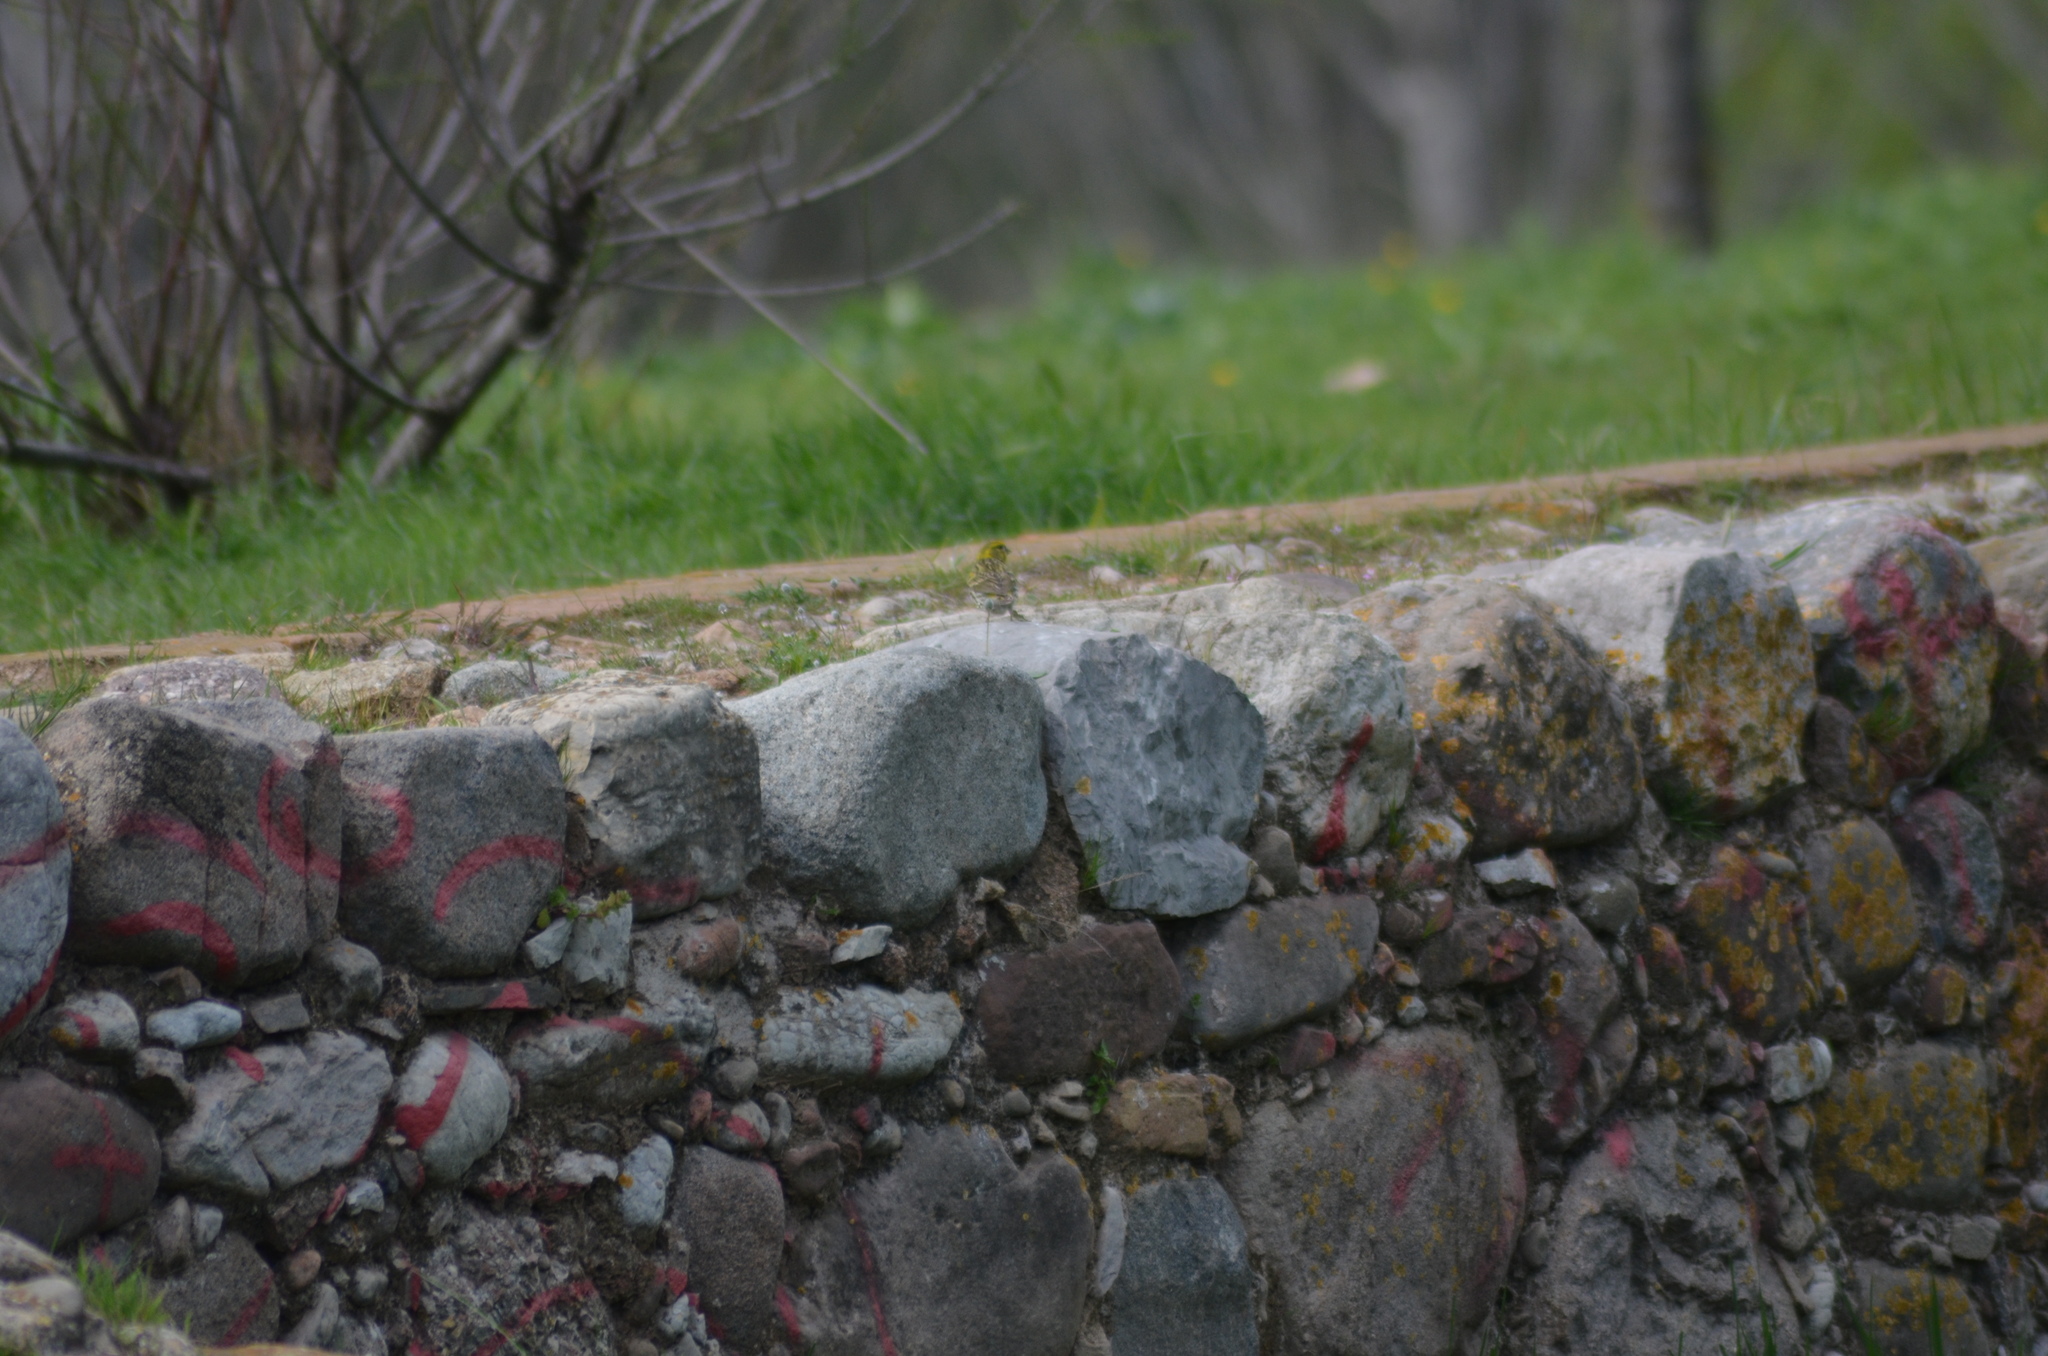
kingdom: Animalia
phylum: Chordata
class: Aves
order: Passeriformes
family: Fringillidae
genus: Serinus
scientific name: Serinus serinus
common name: European serin
